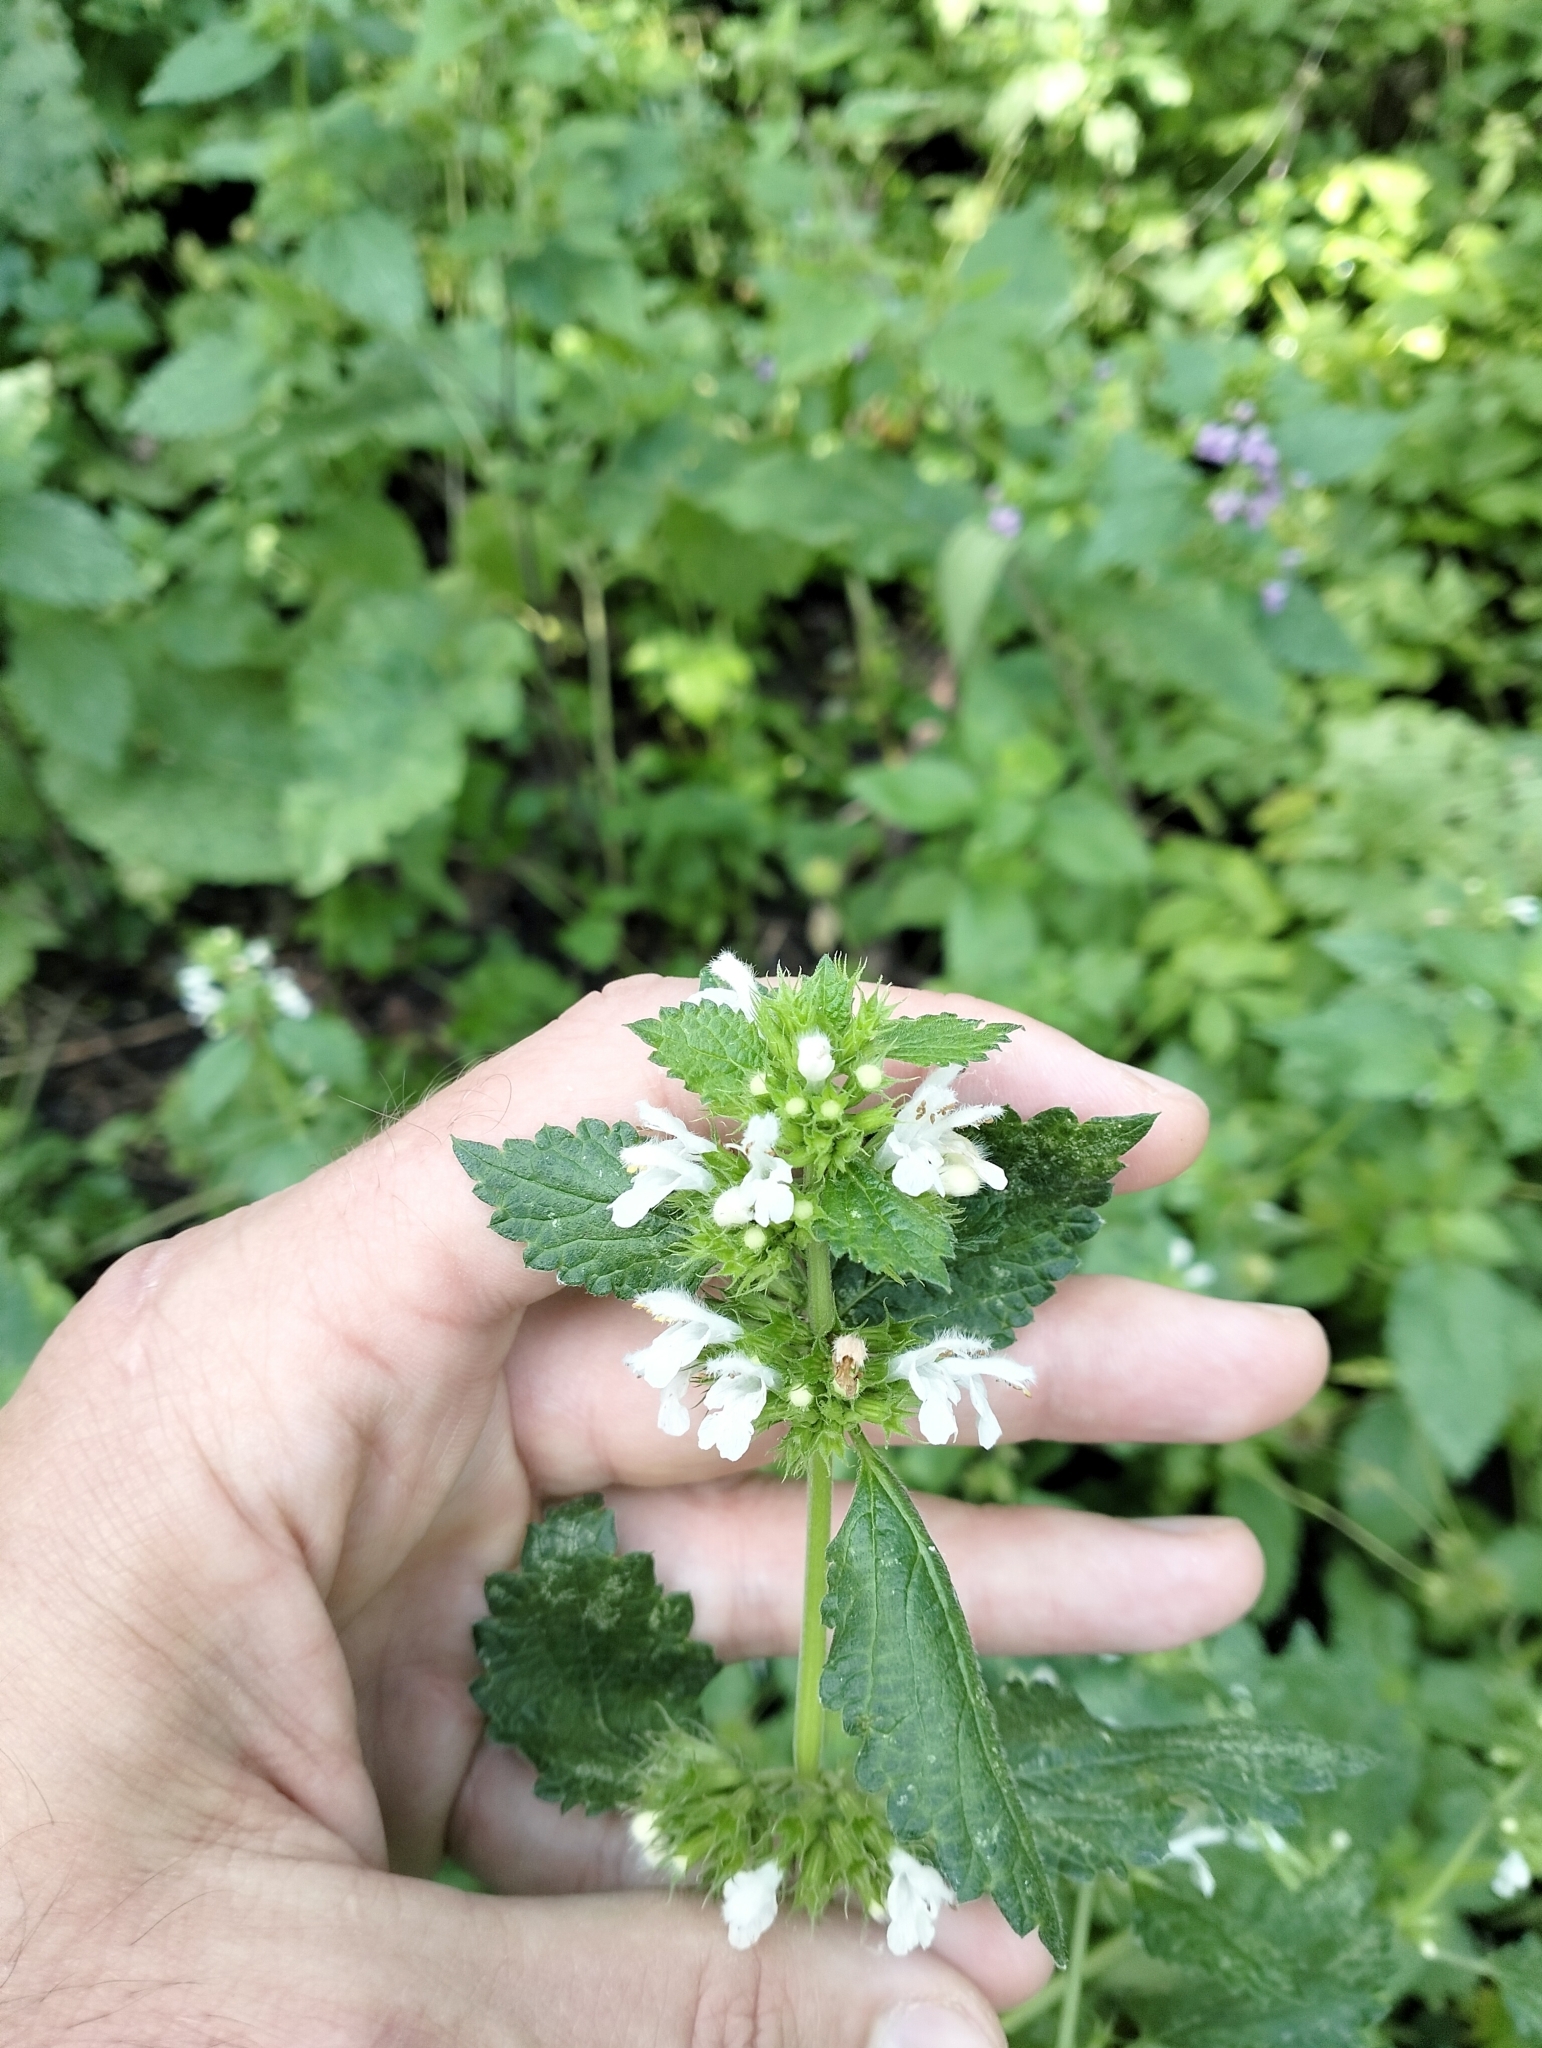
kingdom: Plantae
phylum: Tracheophyta
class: Magnoliopsida
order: Lamiales
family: Lamiaceae
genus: Ballota
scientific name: Ballota nigra
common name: Black horehound
